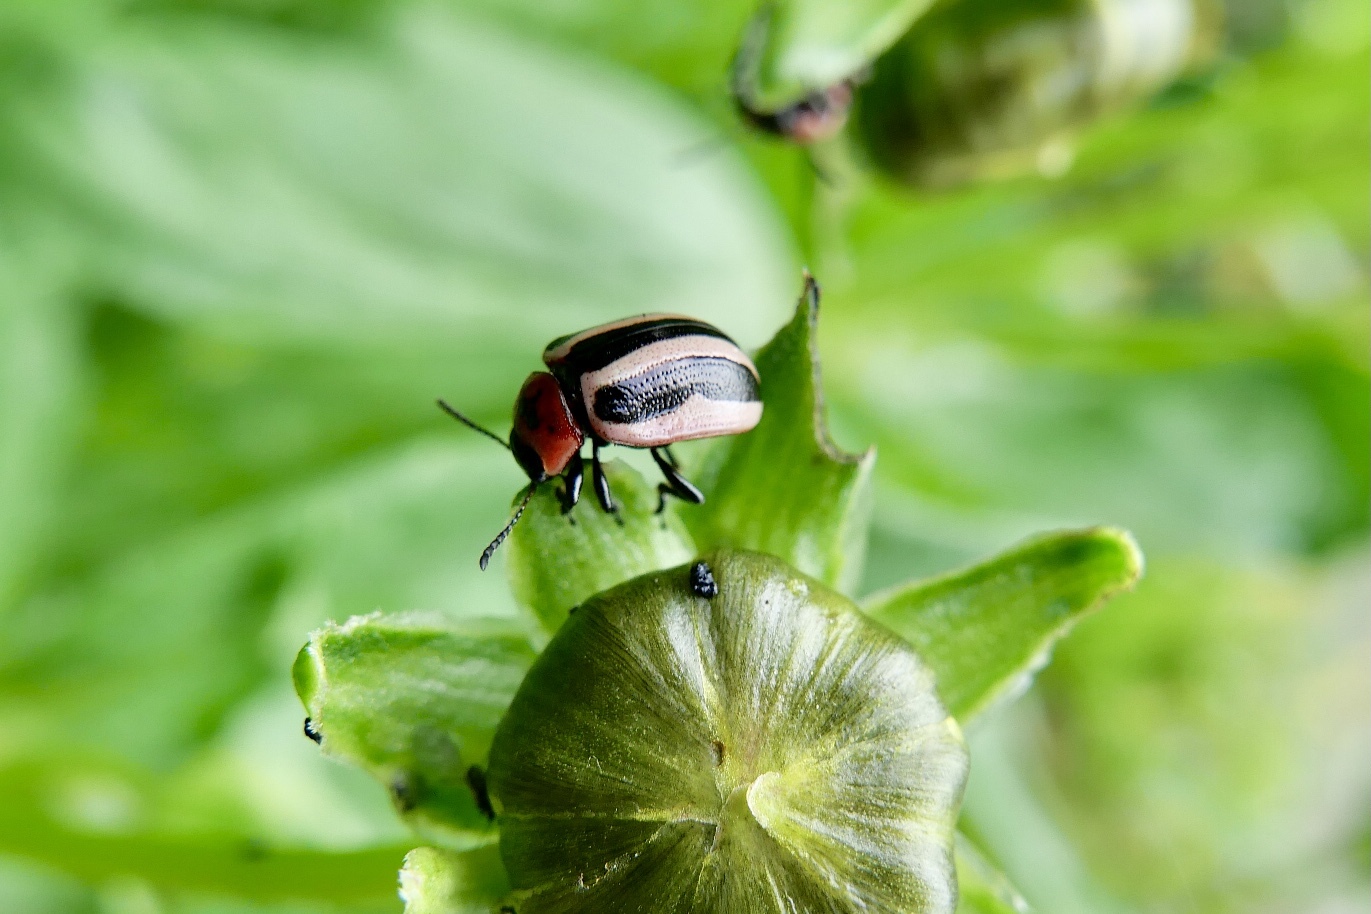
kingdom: Animalia
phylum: Arthropoda
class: Insecta
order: Coleoptera
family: Chrysomelidae
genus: Calligrapha
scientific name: Calligrapha californica
